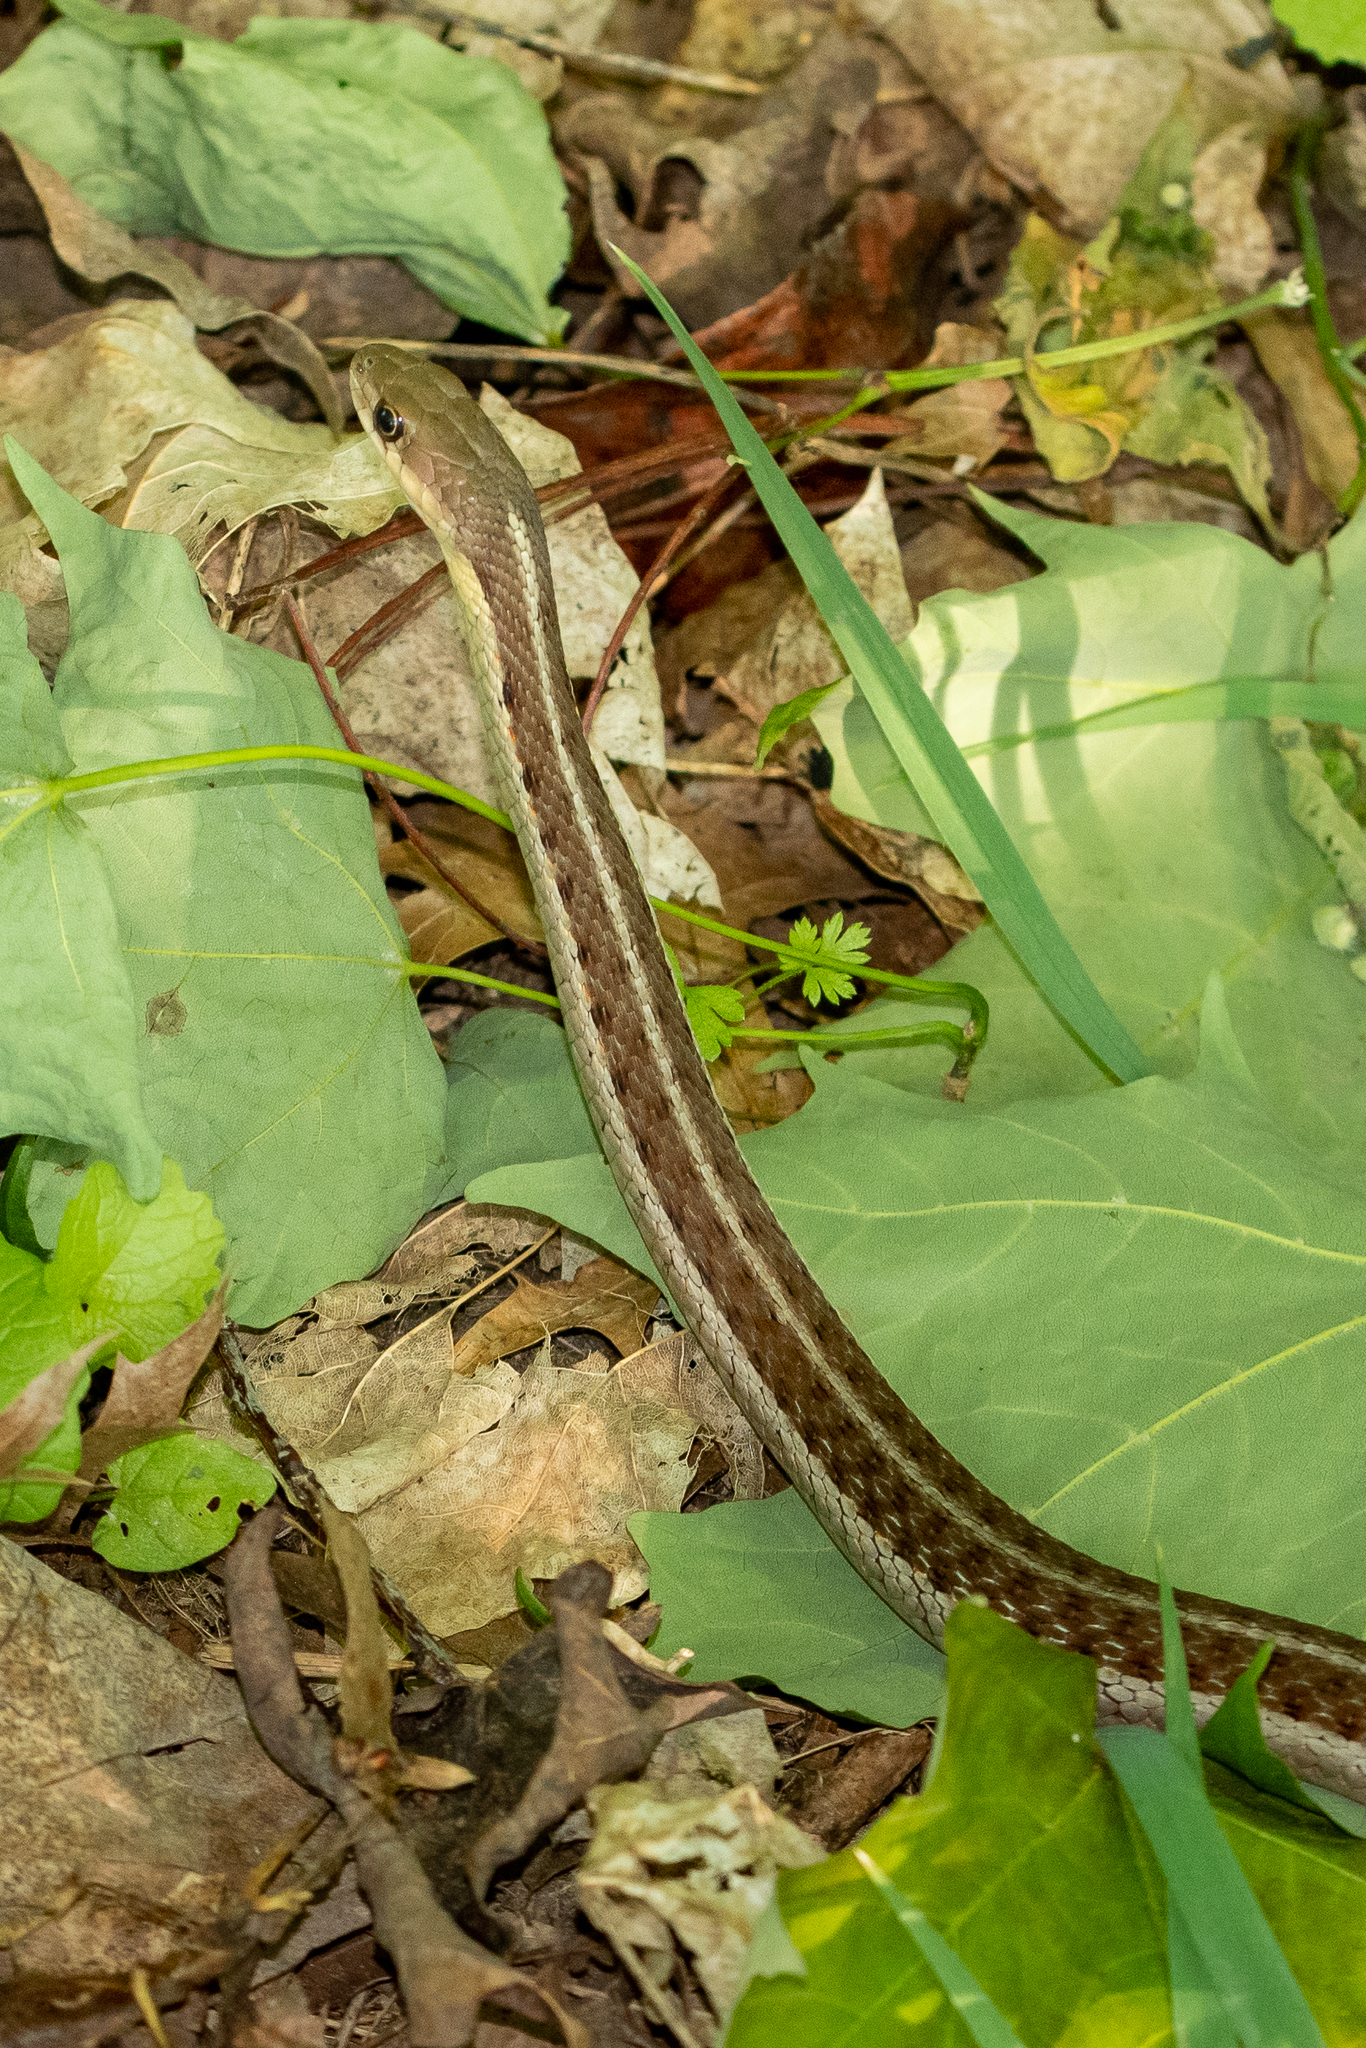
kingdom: Animalia
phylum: Chordata
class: Squamata
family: Colubridae
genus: Thamnophis
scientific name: Thamnophis sirtalis
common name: Common garter snake
